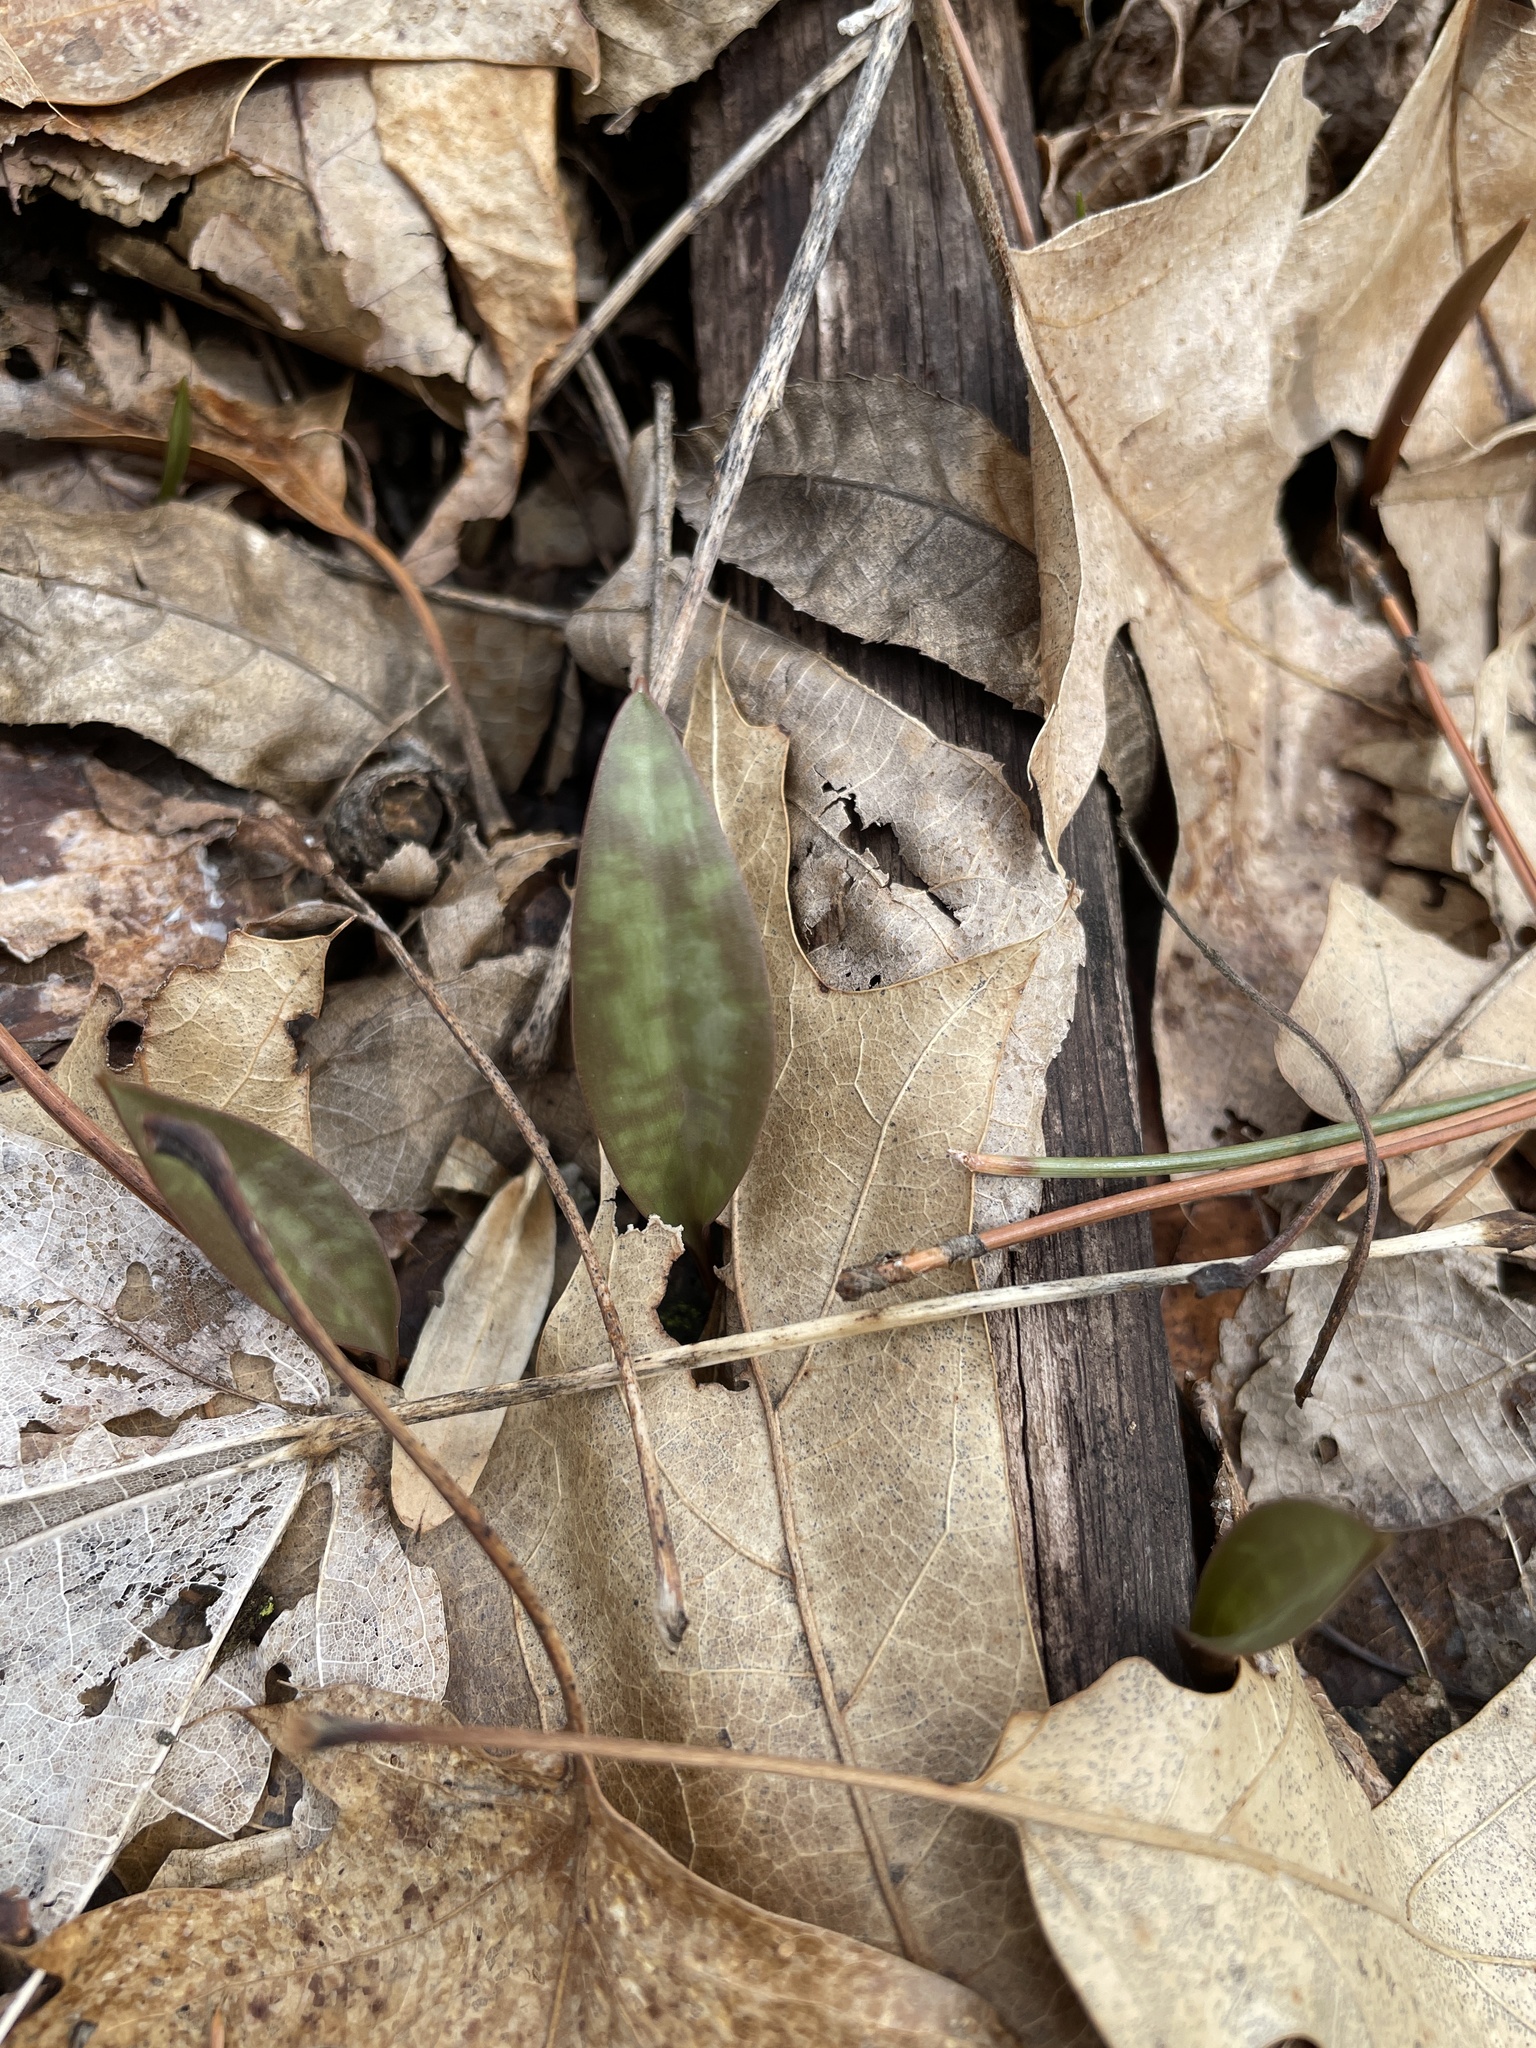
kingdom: Plantae
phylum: Tracheophyta
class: Liliopsida
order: Liliales
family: Liliaceae
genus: Erythronium
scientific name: Erythronium americanum
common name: Yellow adder's-tongue
